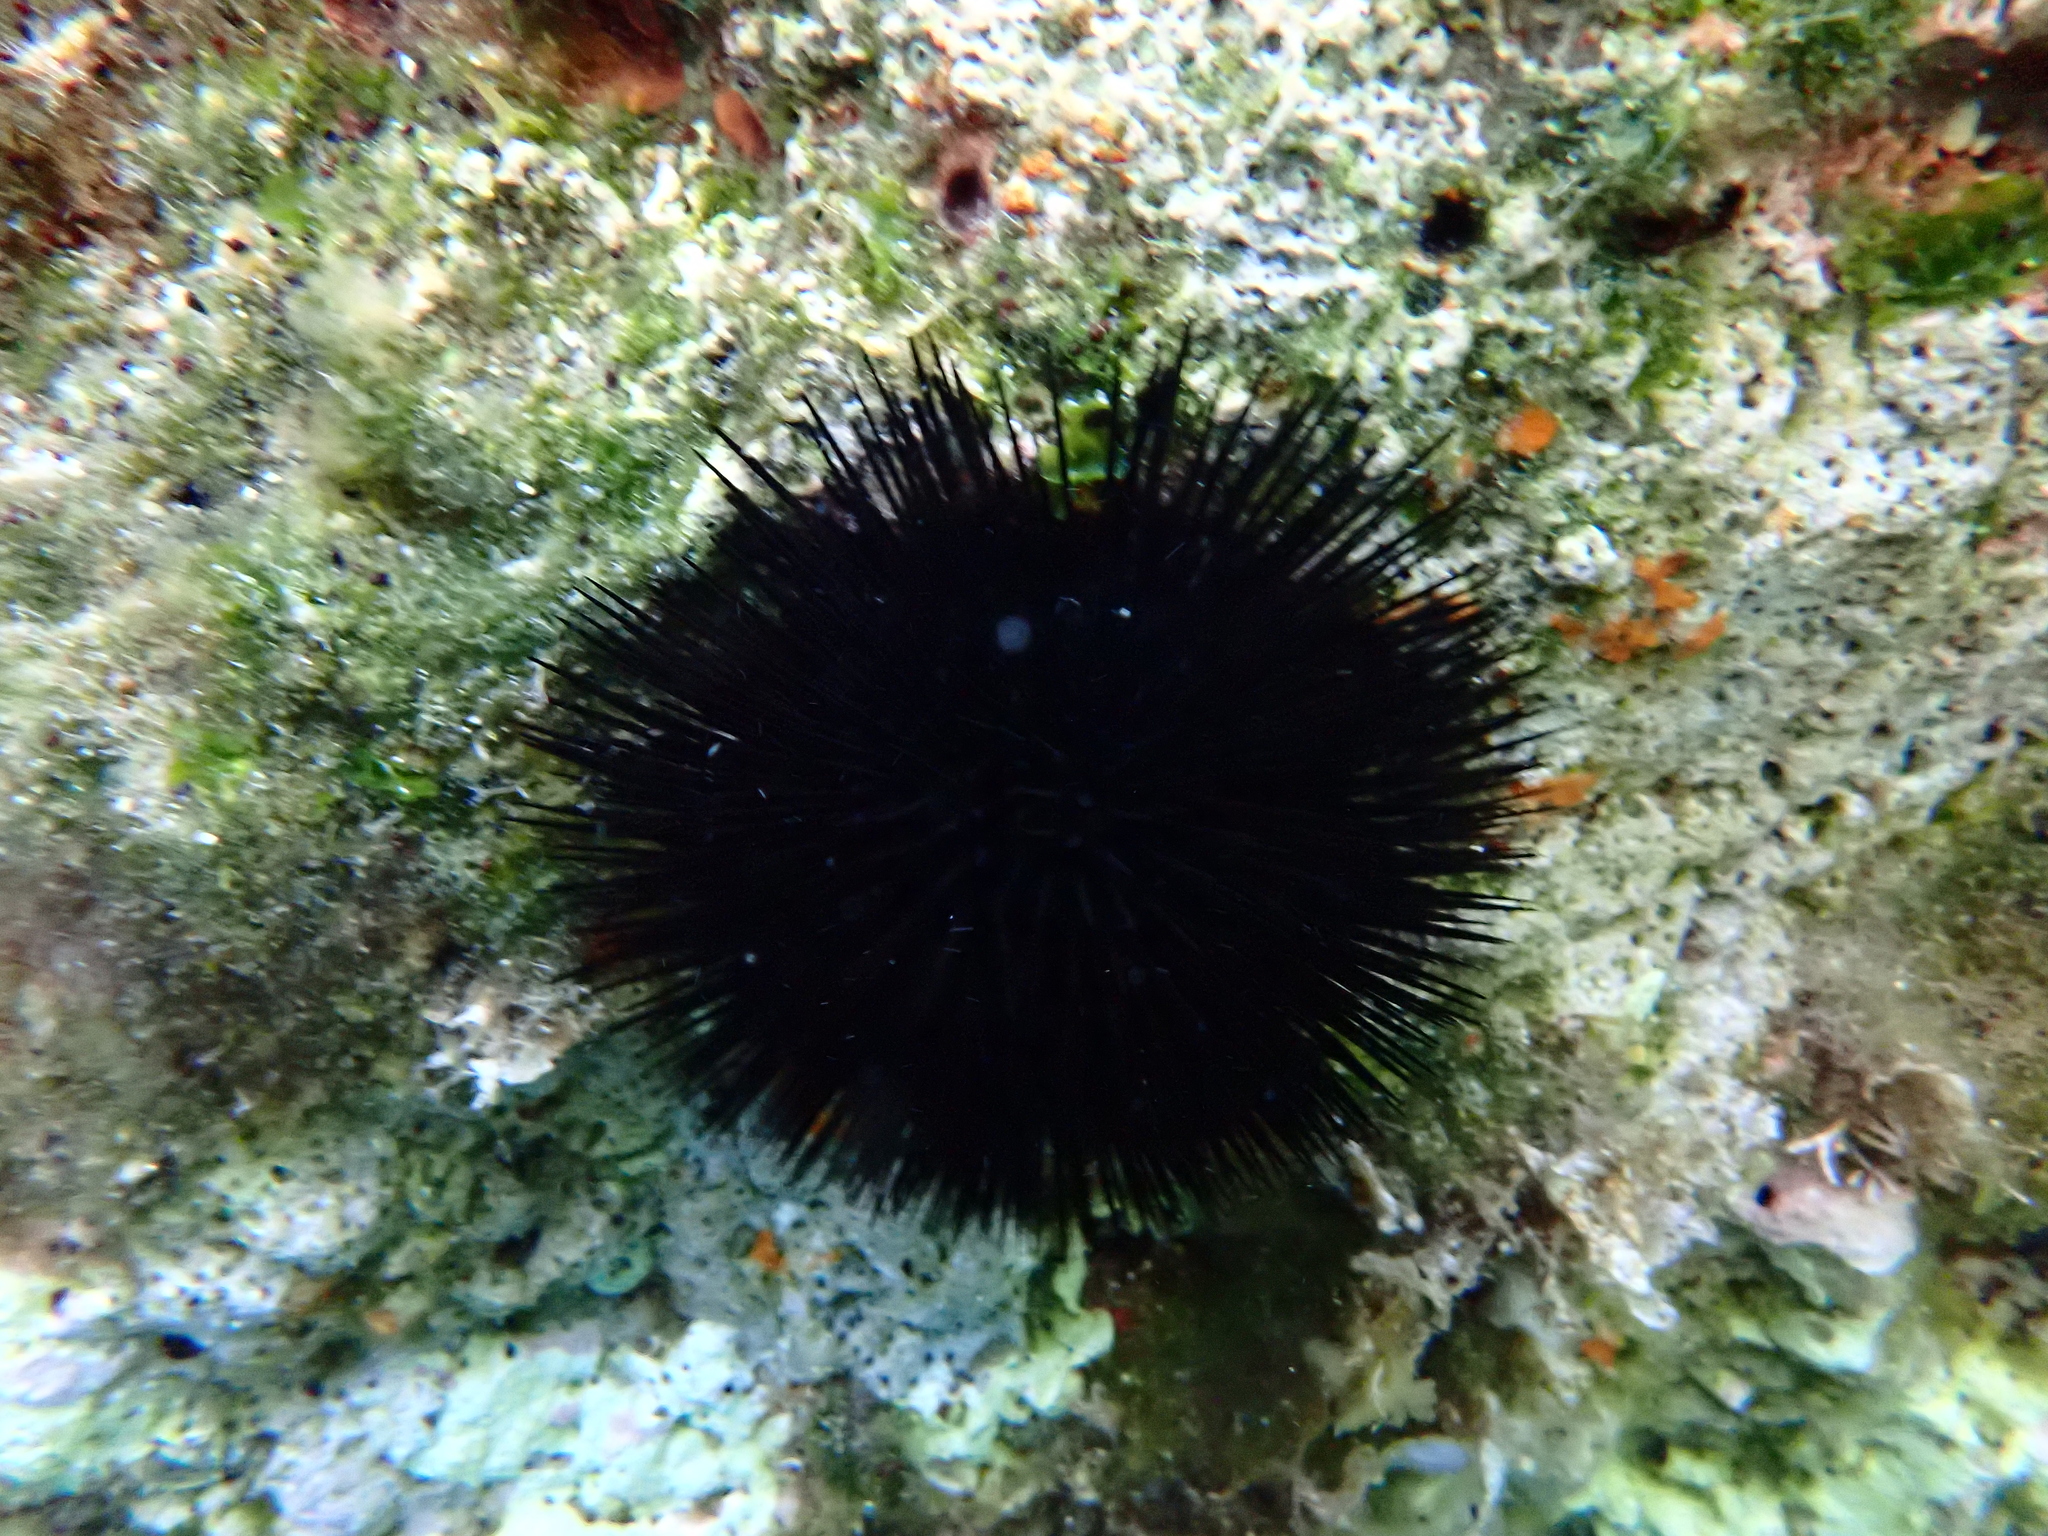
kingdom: Animalia
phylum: Echinodermata
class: Echinoidea
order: Arbacioida
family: Arbaciidae
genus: Arbacia
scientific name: Arbacia lixula
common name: Black sea urchin
